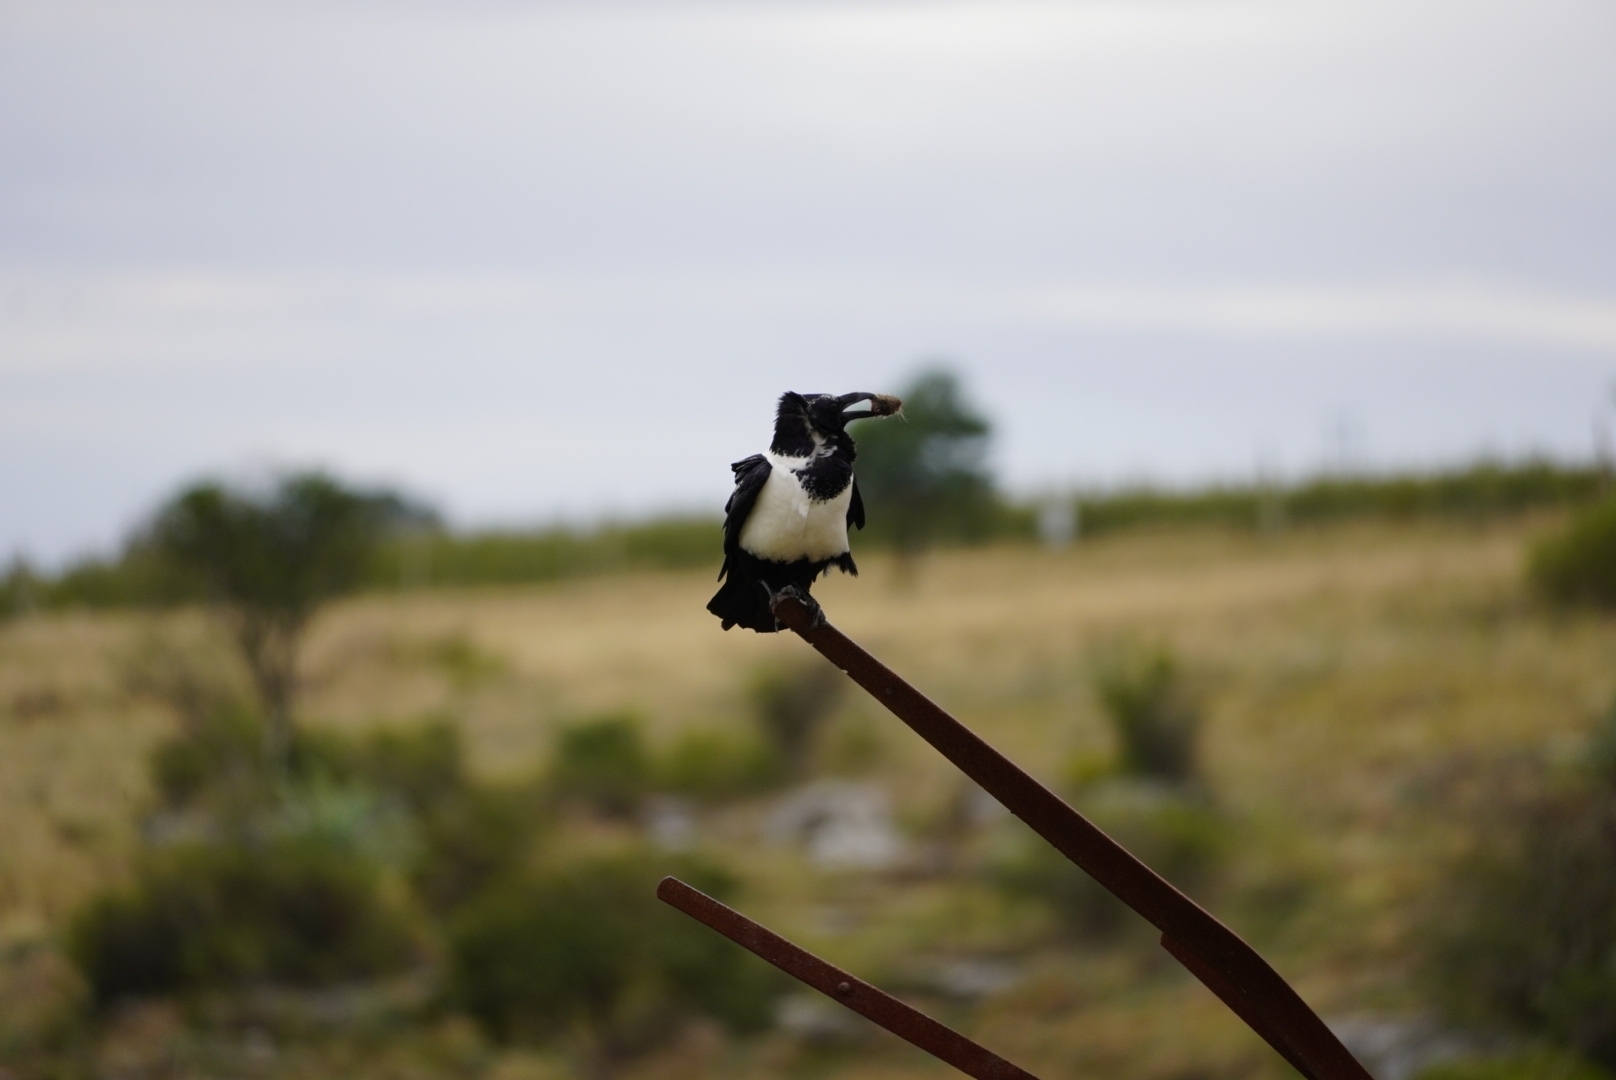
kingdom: Animalia
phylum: Chordata
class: Aves
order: Passeriformes
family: Corvidae
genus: Corvus
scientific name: Corvus albus
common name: Pied crow
